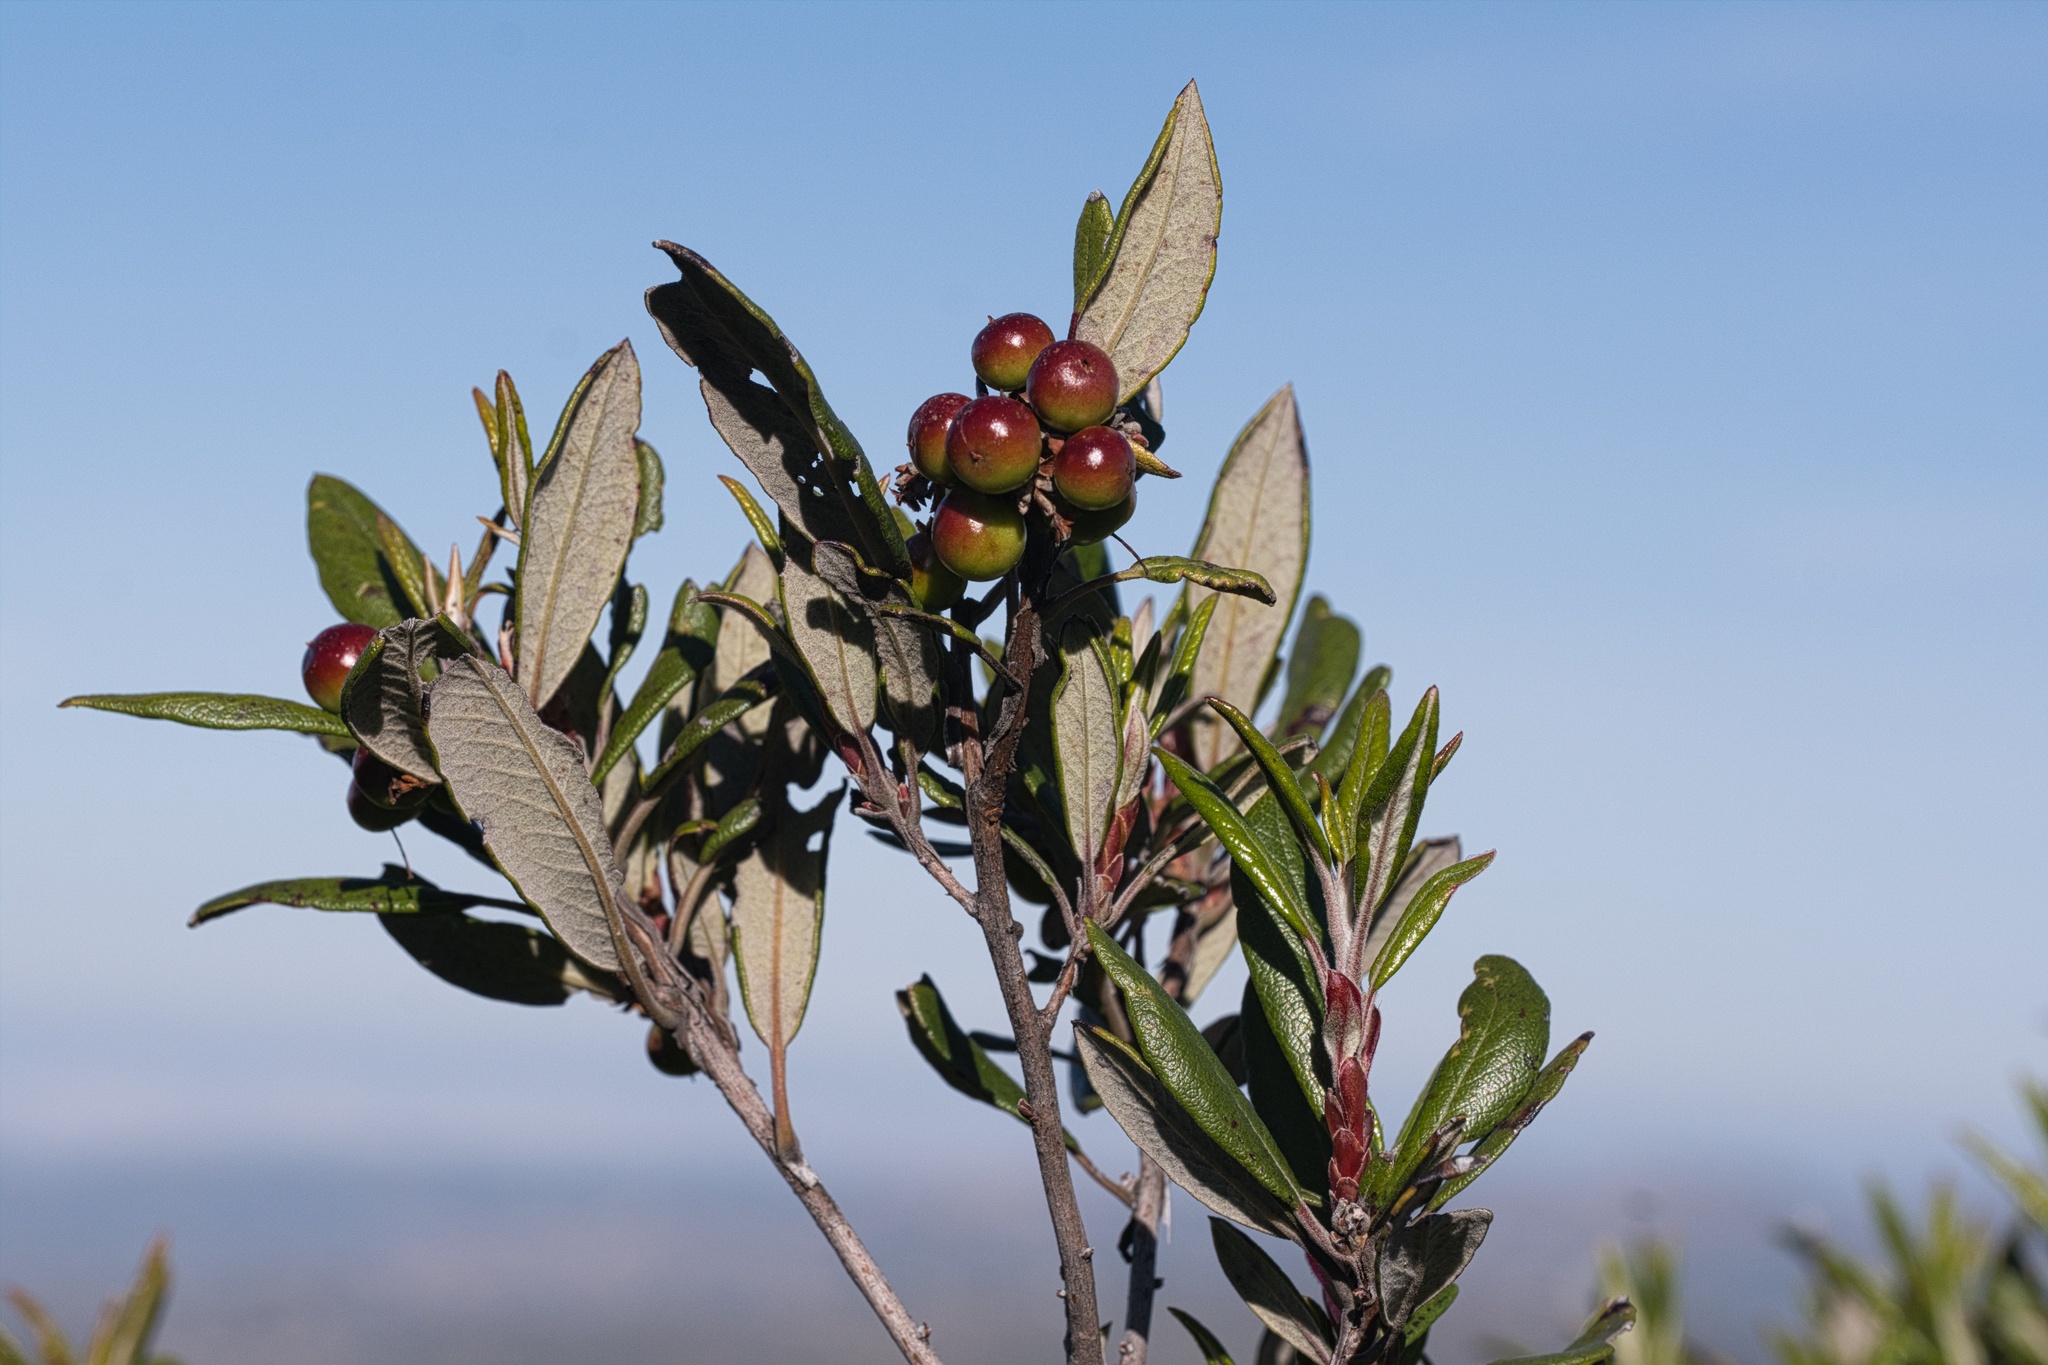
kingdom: Plantae
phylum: Tracheophyta
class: Magnoliopsida
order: Ericales
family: Ericaceae
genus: Arctostaphylos
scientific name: Arctostaphylos bicolor
